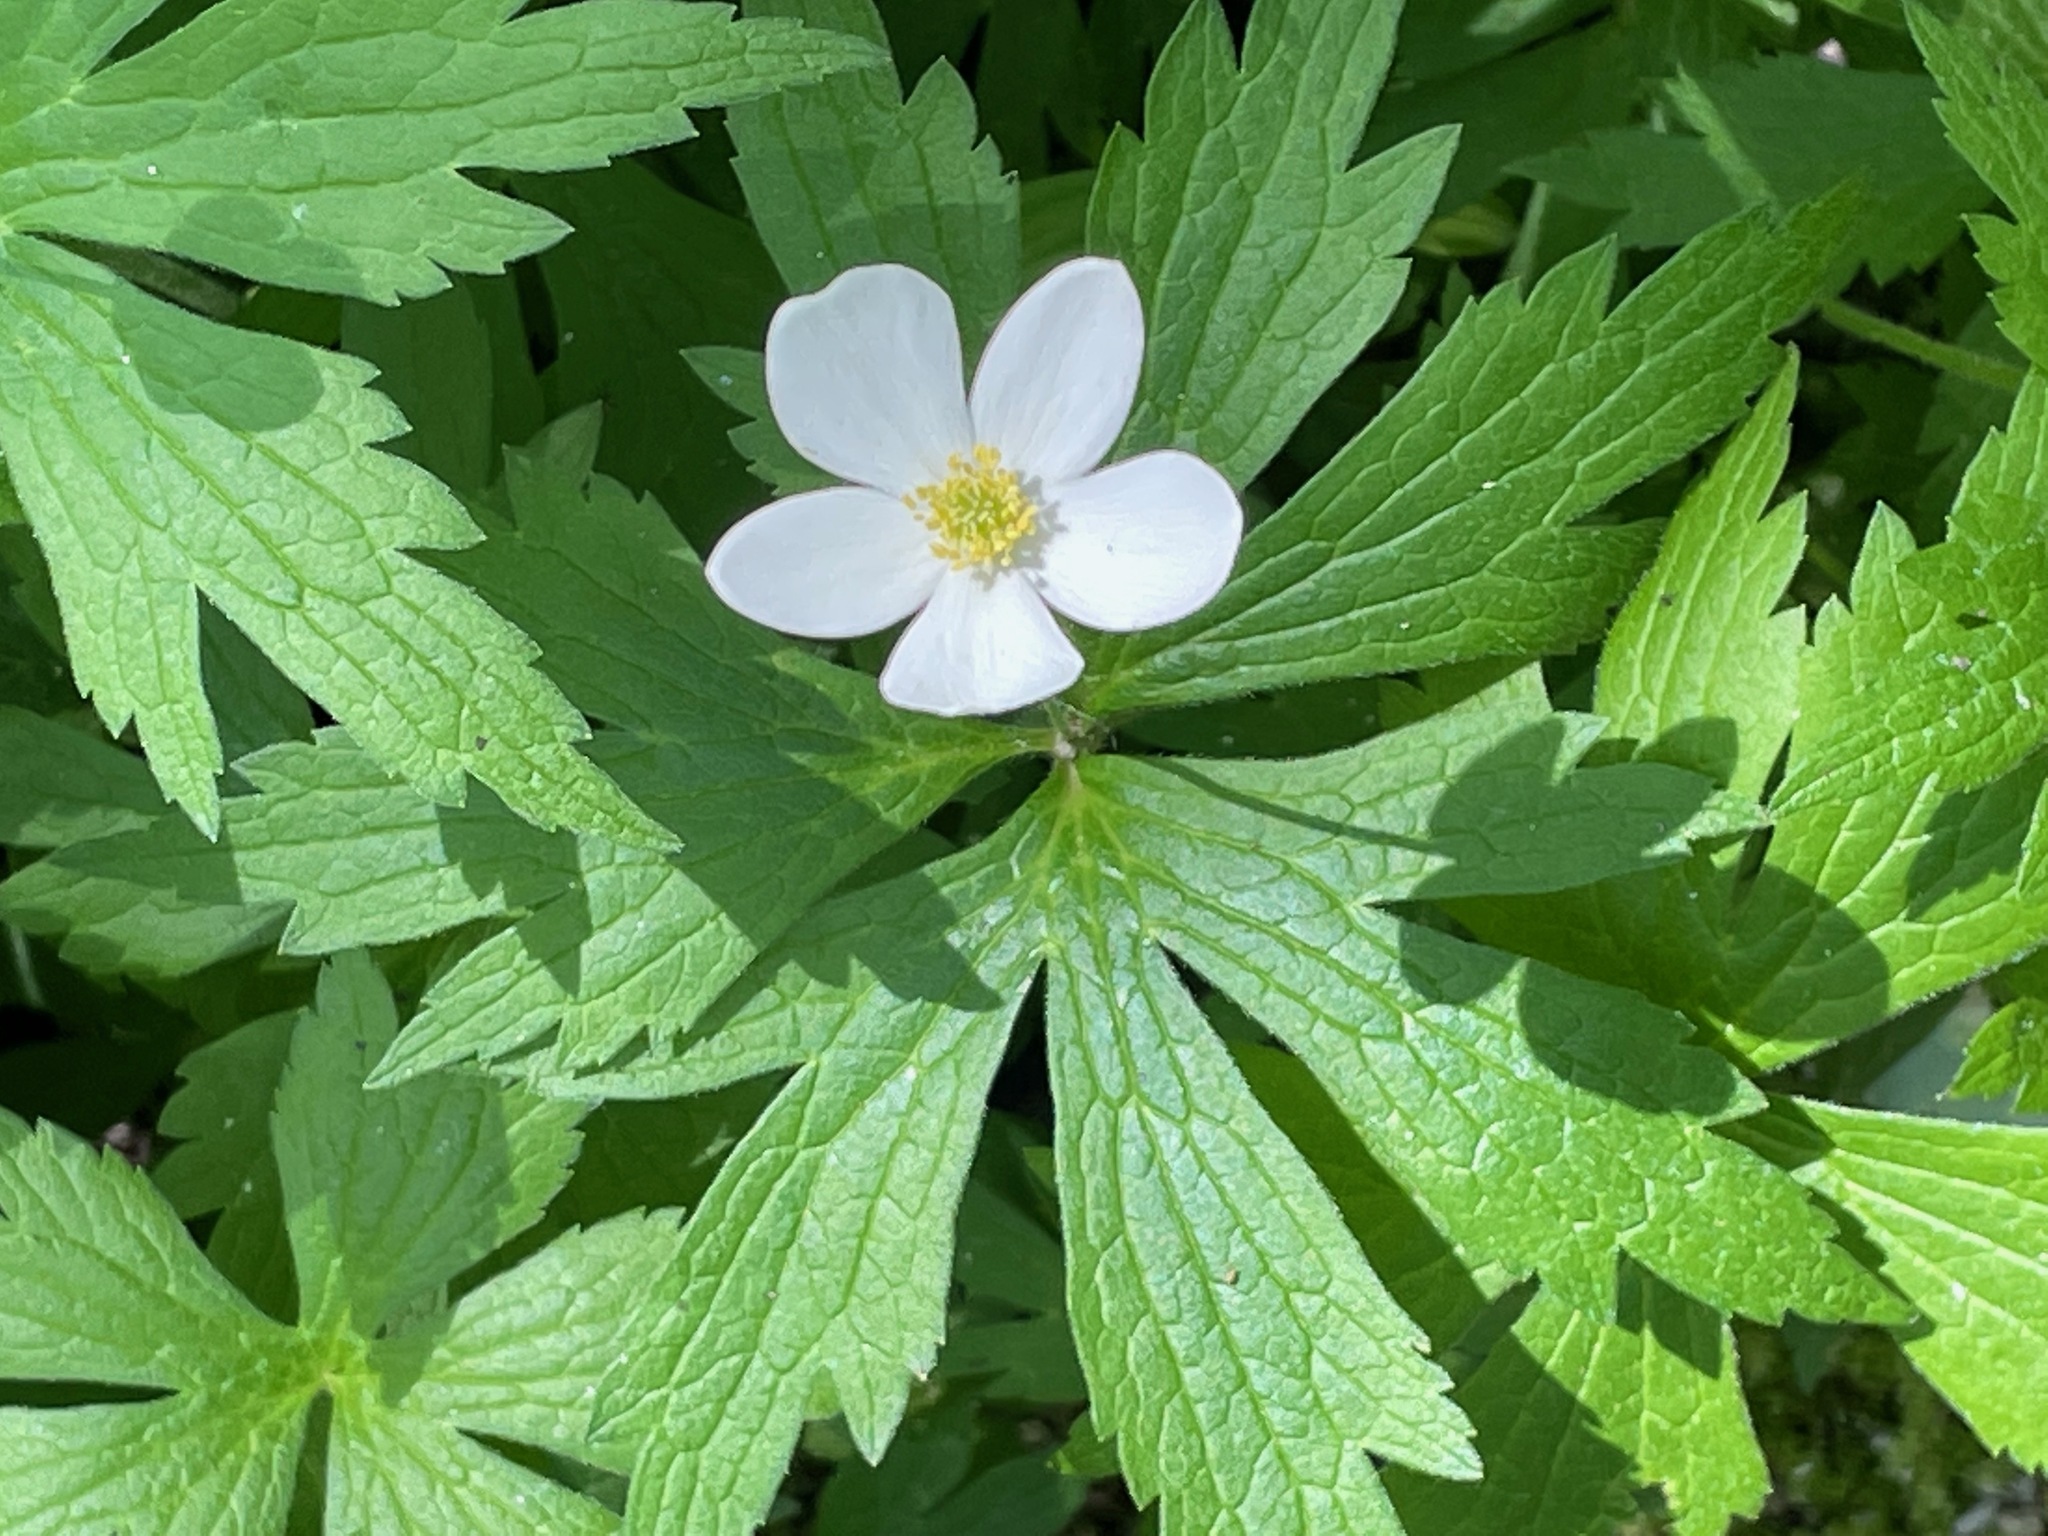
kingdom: Plantae
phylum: Tracheophyta
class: Magnoliopsida
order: Ranunculales
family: Ranunculaceae
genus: Anemonastrum
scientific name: Anemonastrum canadense
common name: Canada anemone
